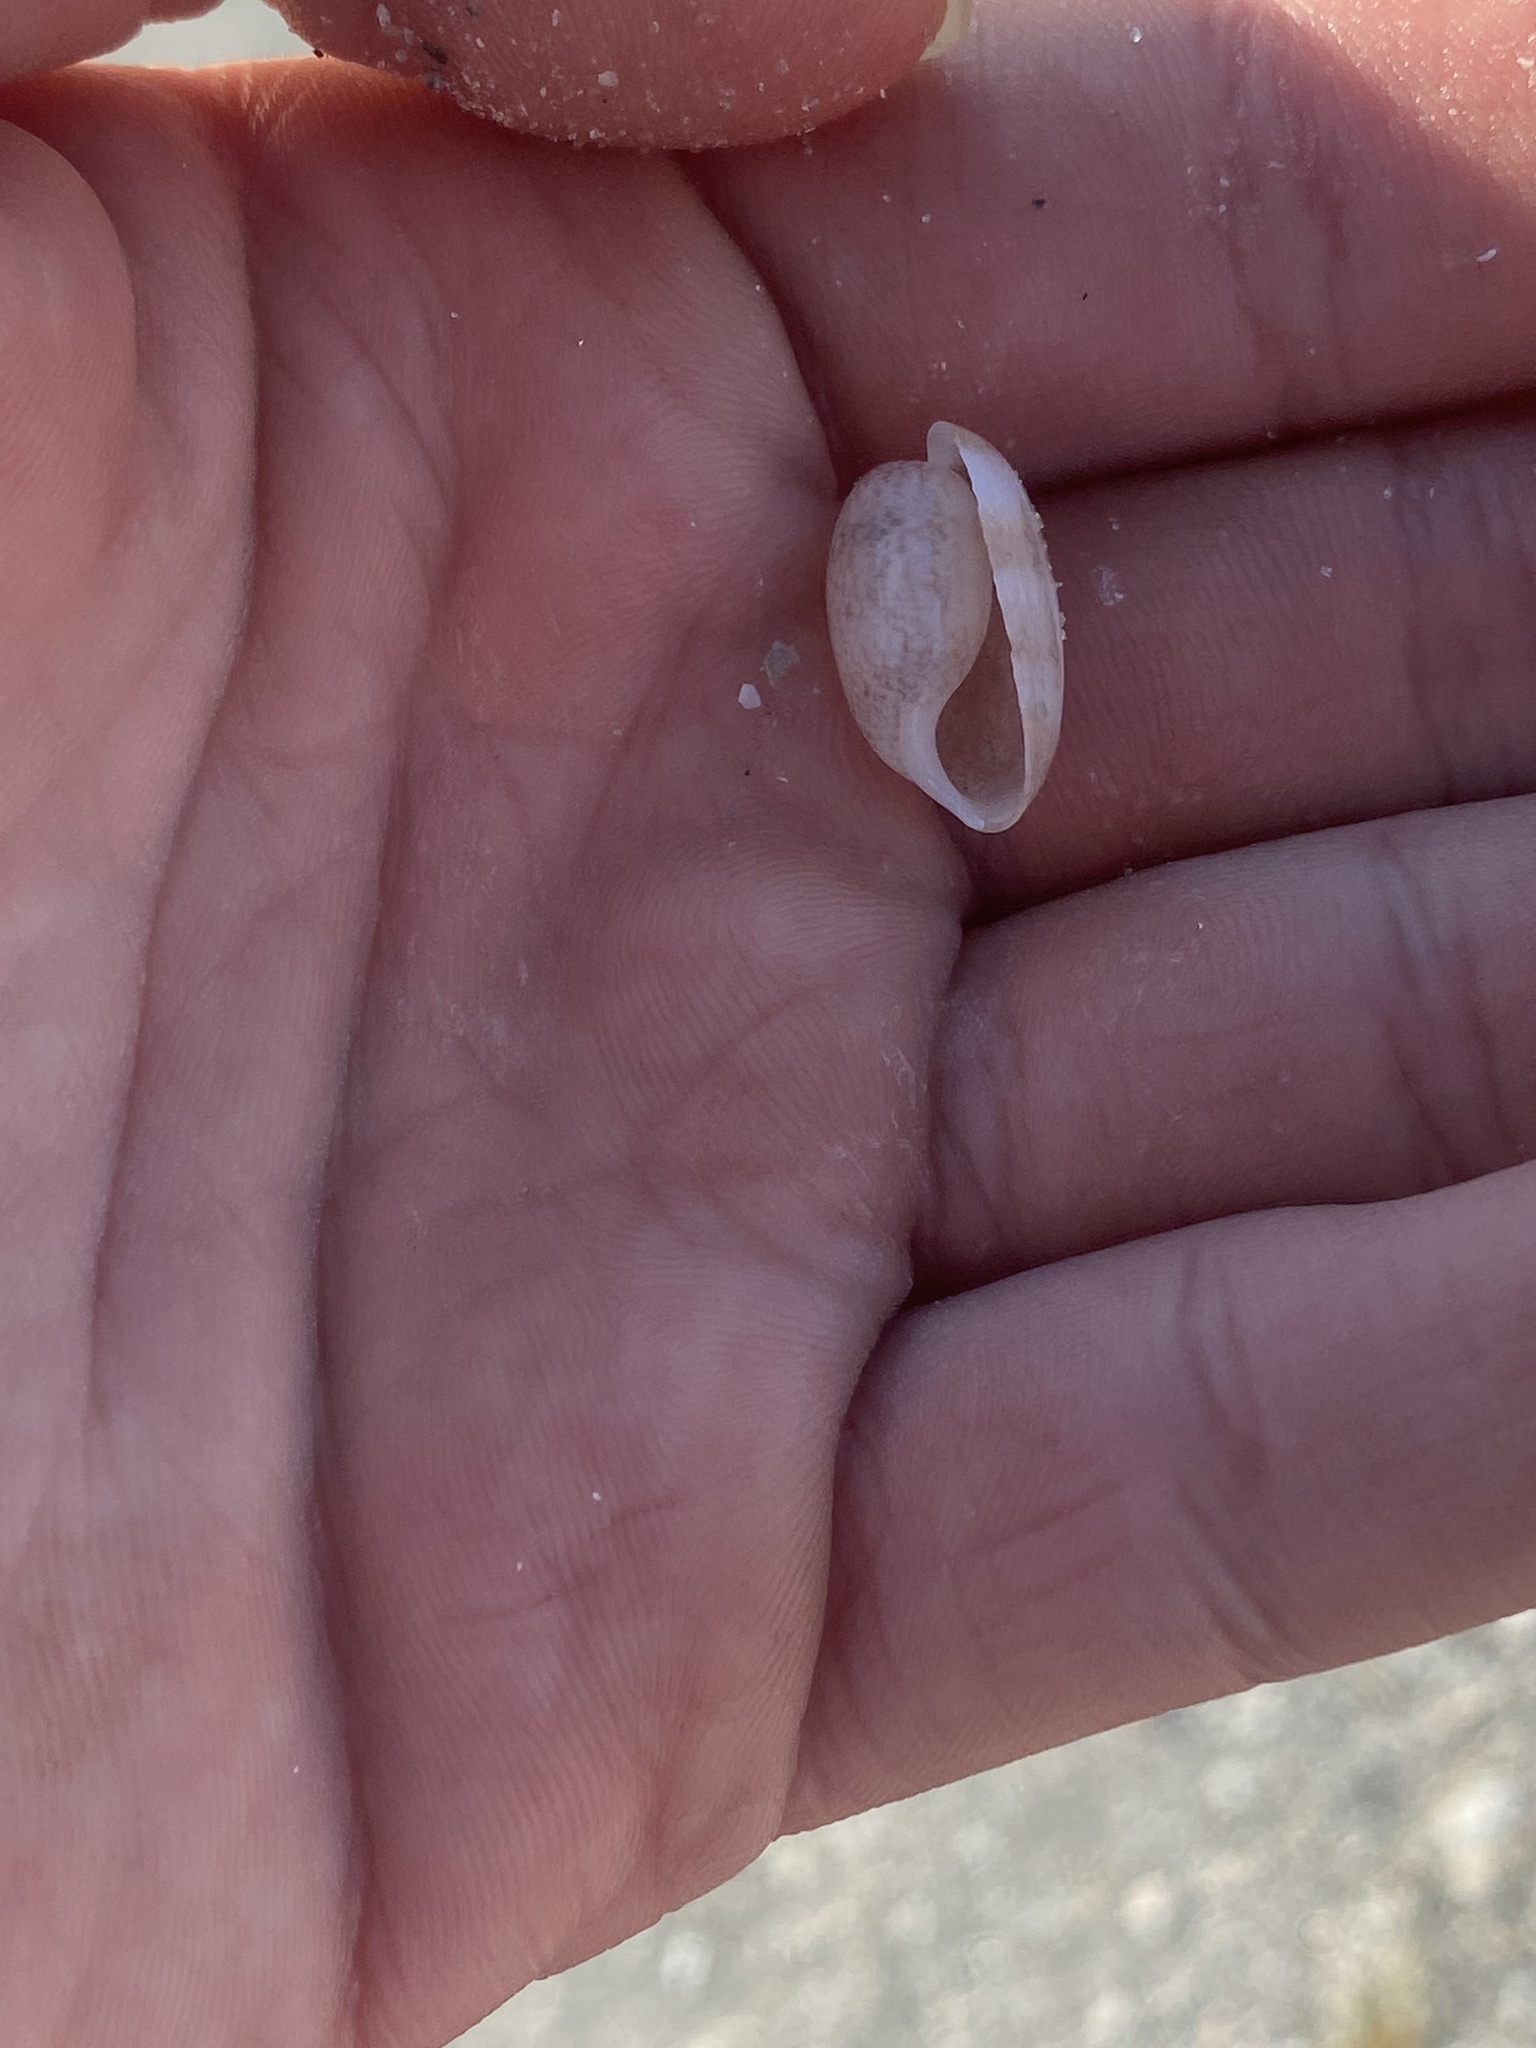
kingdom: Animalia
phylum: Mollusca
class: Gastropoda
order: Cephalaspidea
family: Bullidae
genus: Bulla
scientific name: Bulla occidentalis
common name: Common west-indian bubble
